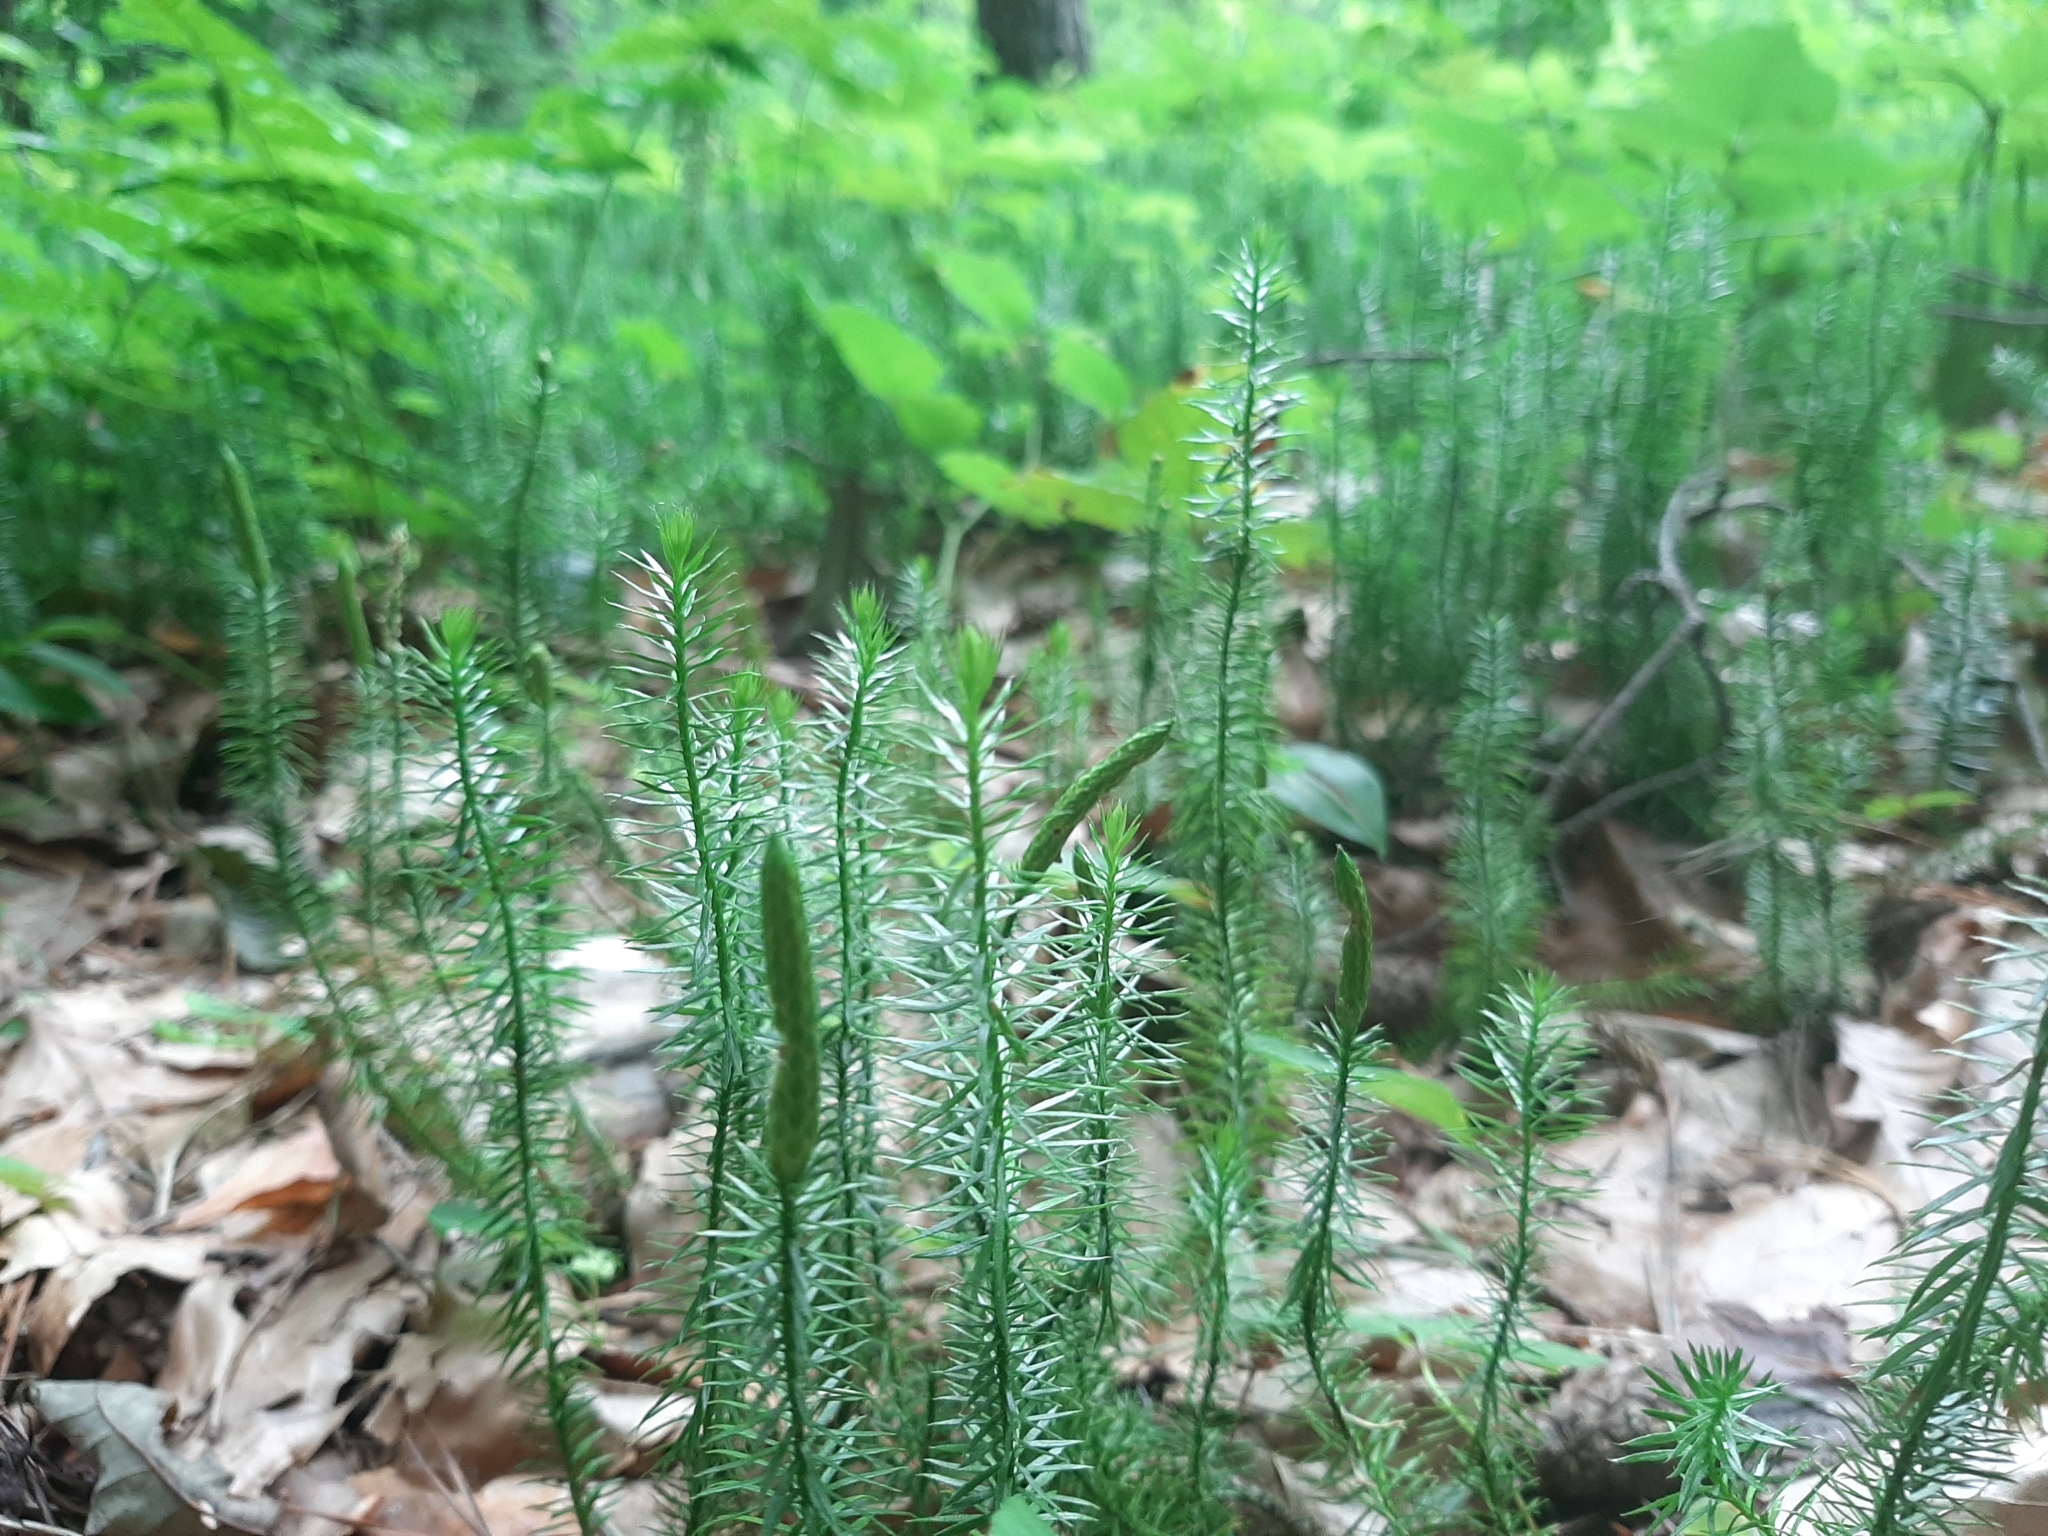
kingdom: Plantae
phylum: Tracheophyta
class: Lycopodiopsida
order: Lycopodiales
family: Lycopodiaceae
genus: Spinulum
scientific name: Spinulum annotinum
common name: Interrupted club-moss
